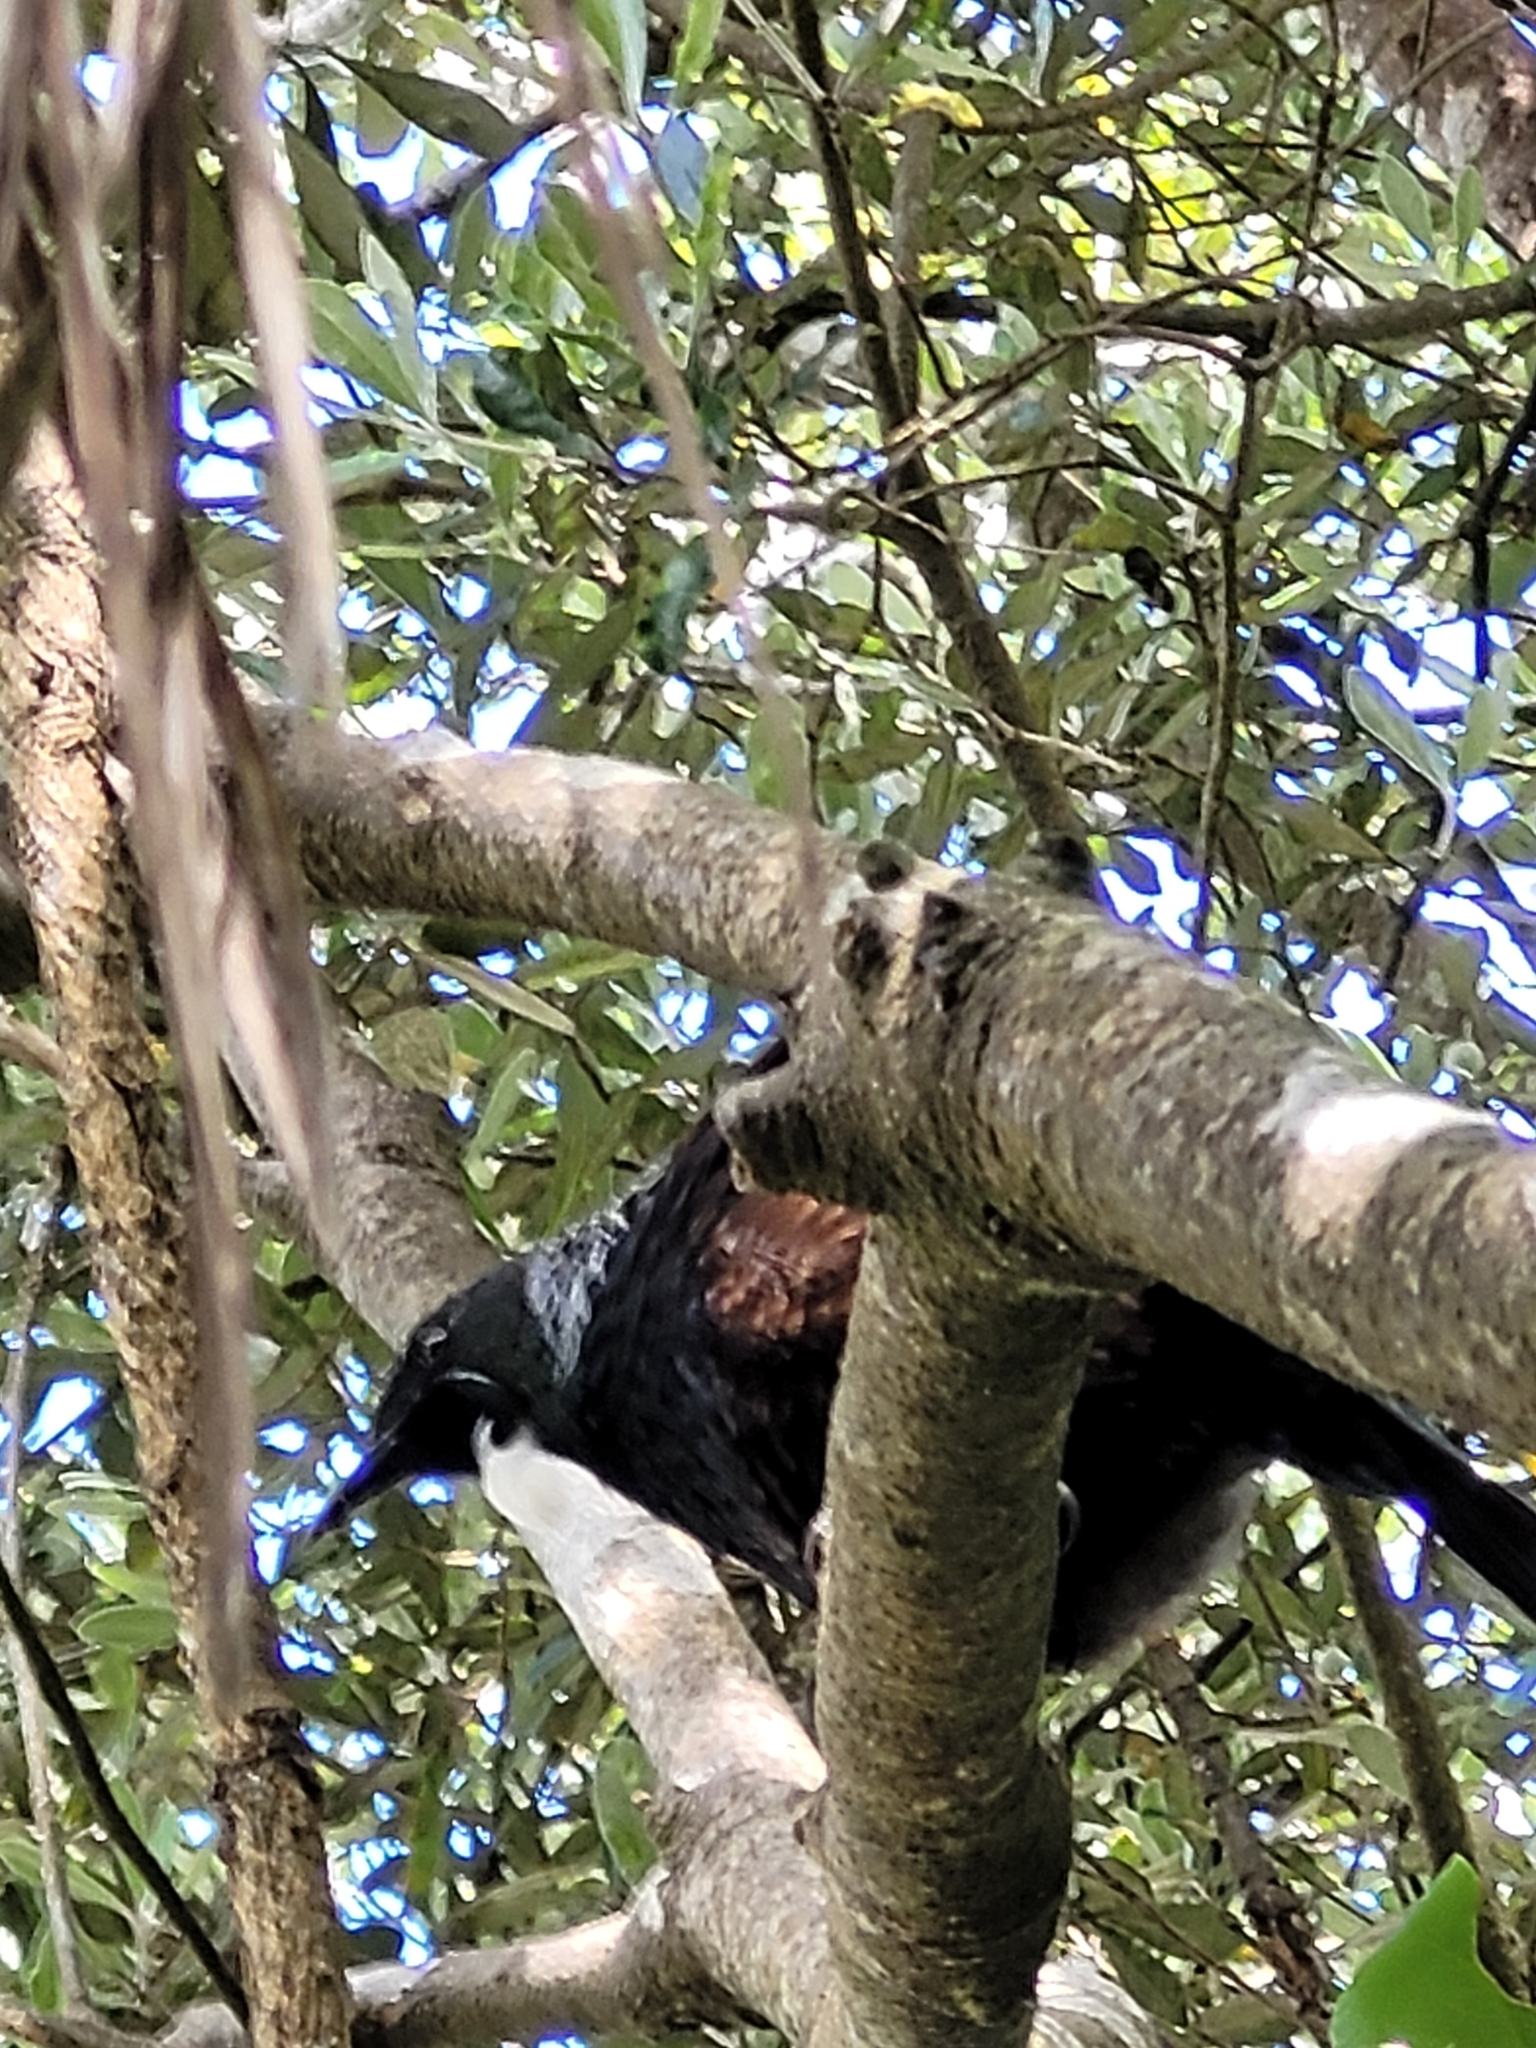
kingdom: Animalia
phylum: Chordata
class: Aves
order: Passeriformes
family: Meliphagidae
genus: Prosthemadera
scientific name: Prosthemadera novaeseelandiae
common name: Tui
